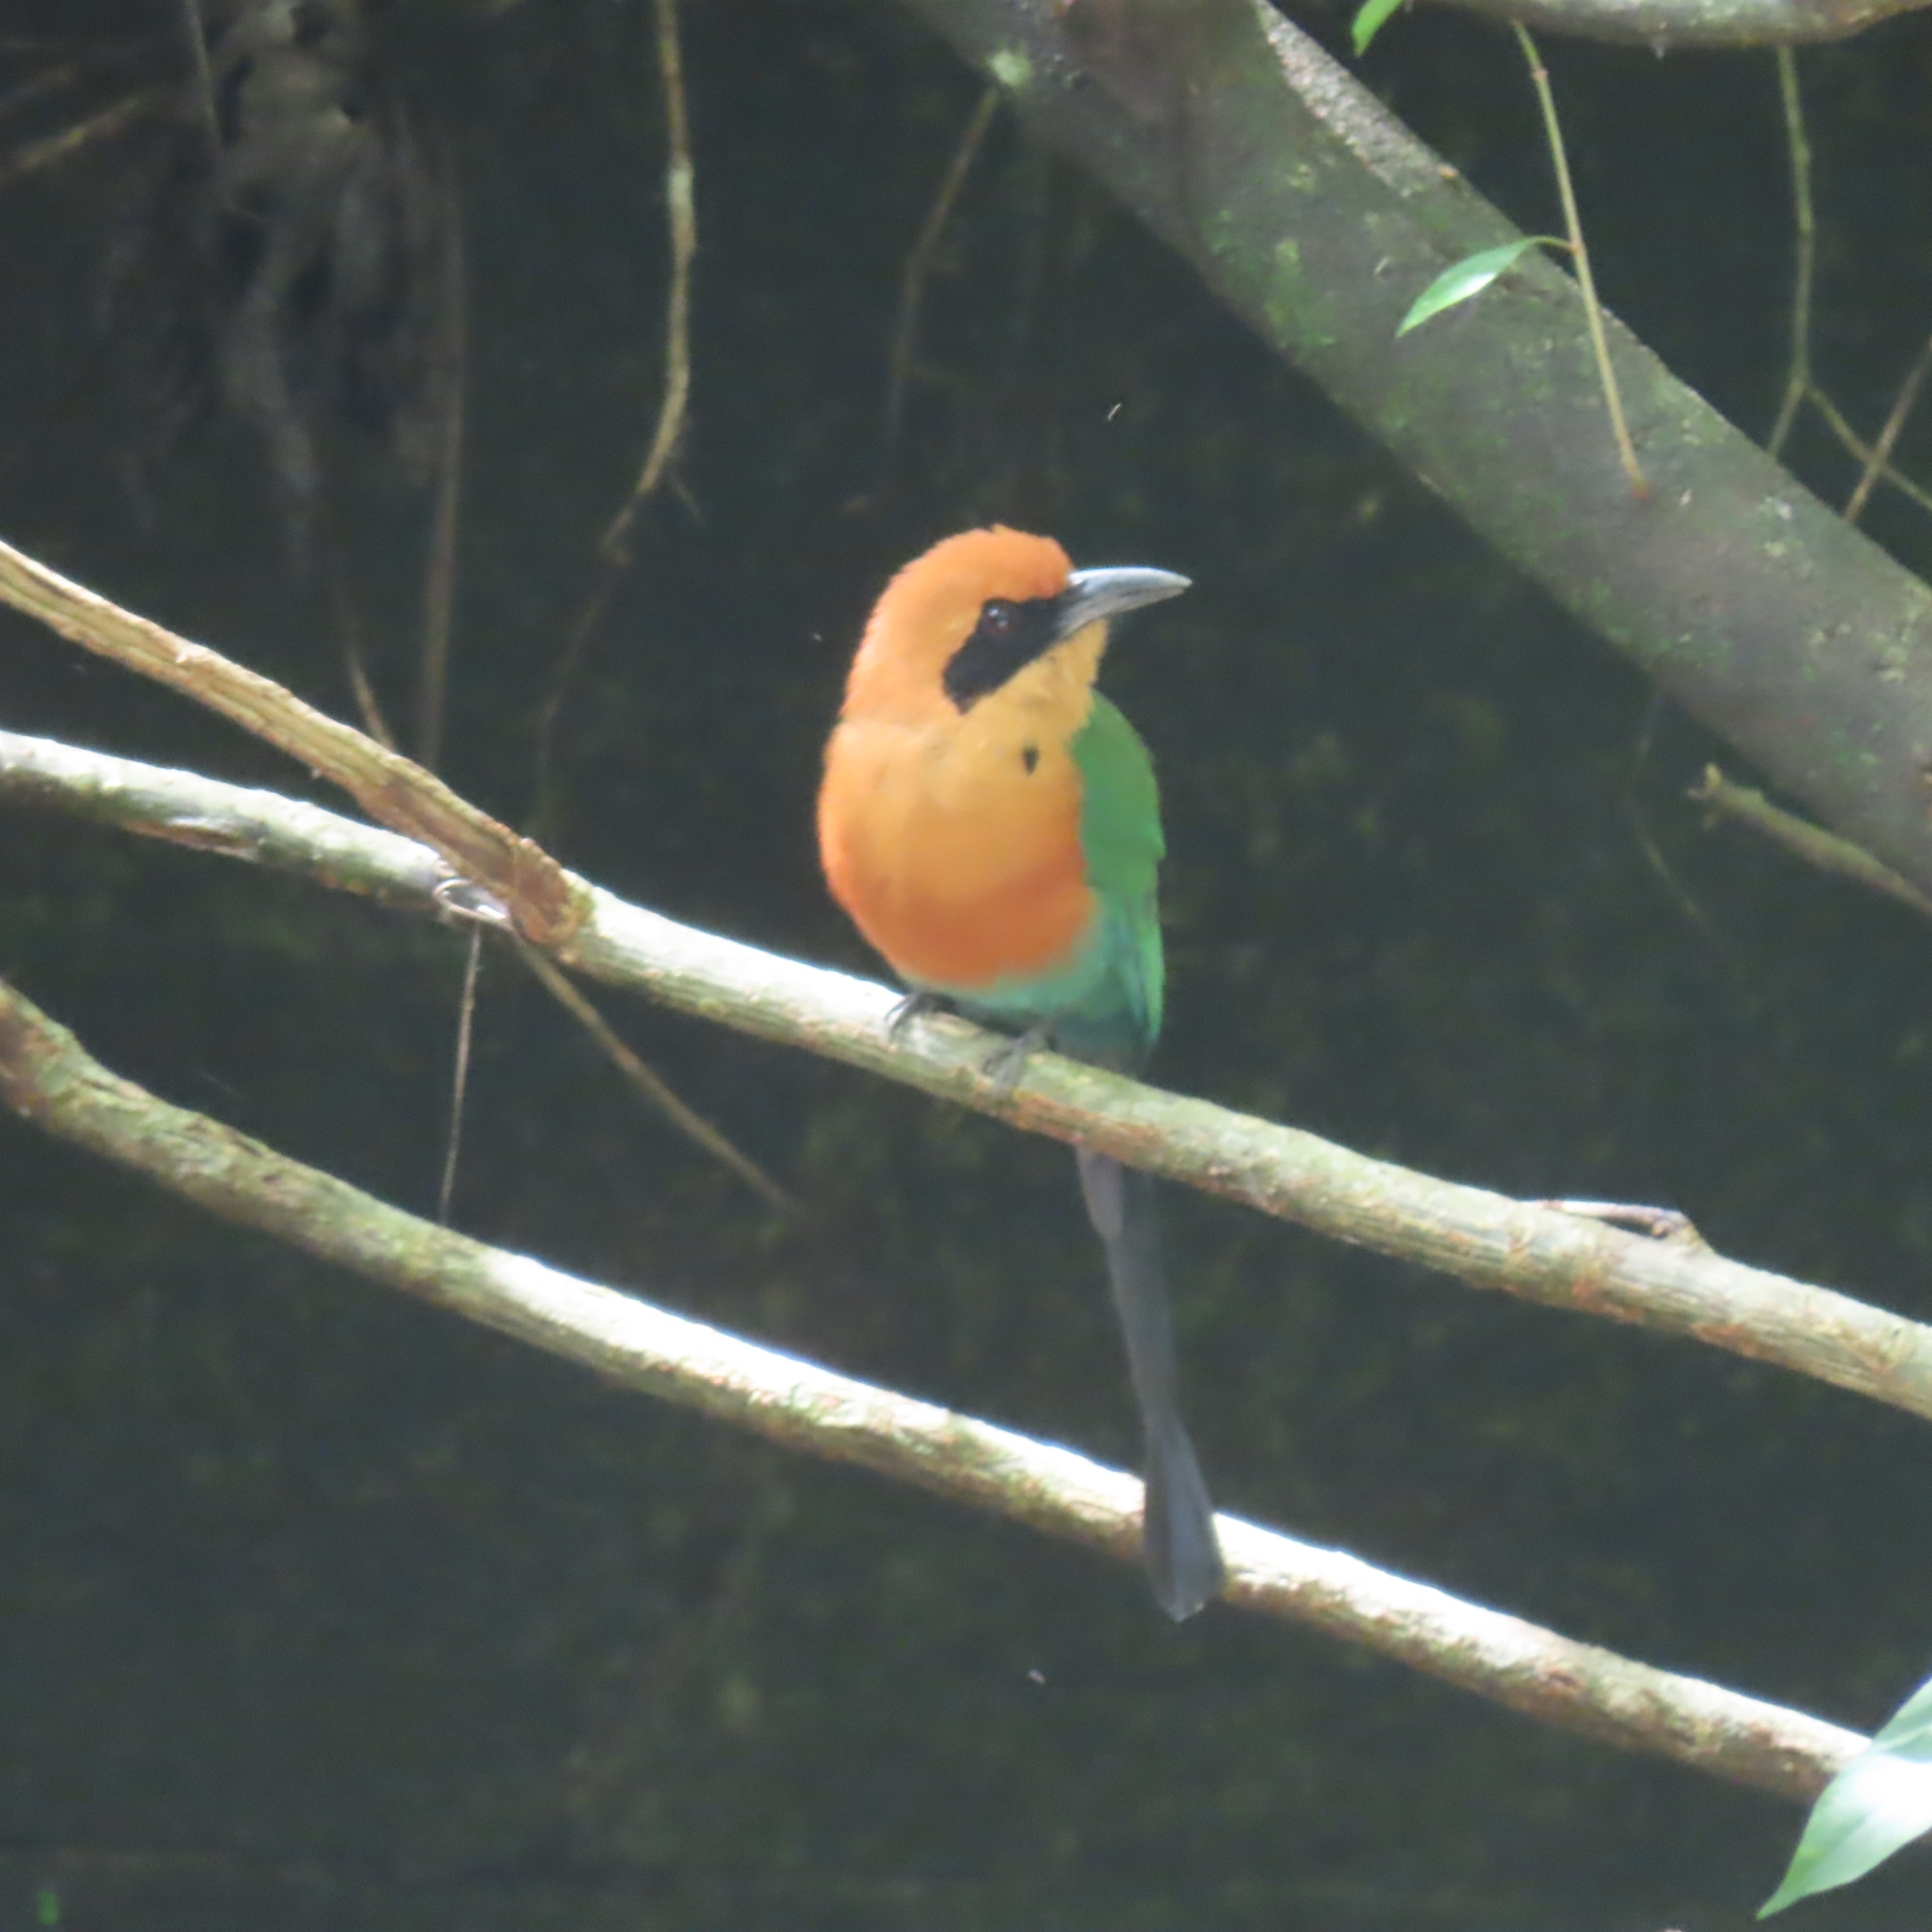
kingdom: Animalia
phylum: Chordata
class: Aves
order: Coraciiformes
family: Momotidae
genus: Baryphthengus
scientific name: Baryphthengus martii
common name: Rufous motmot
